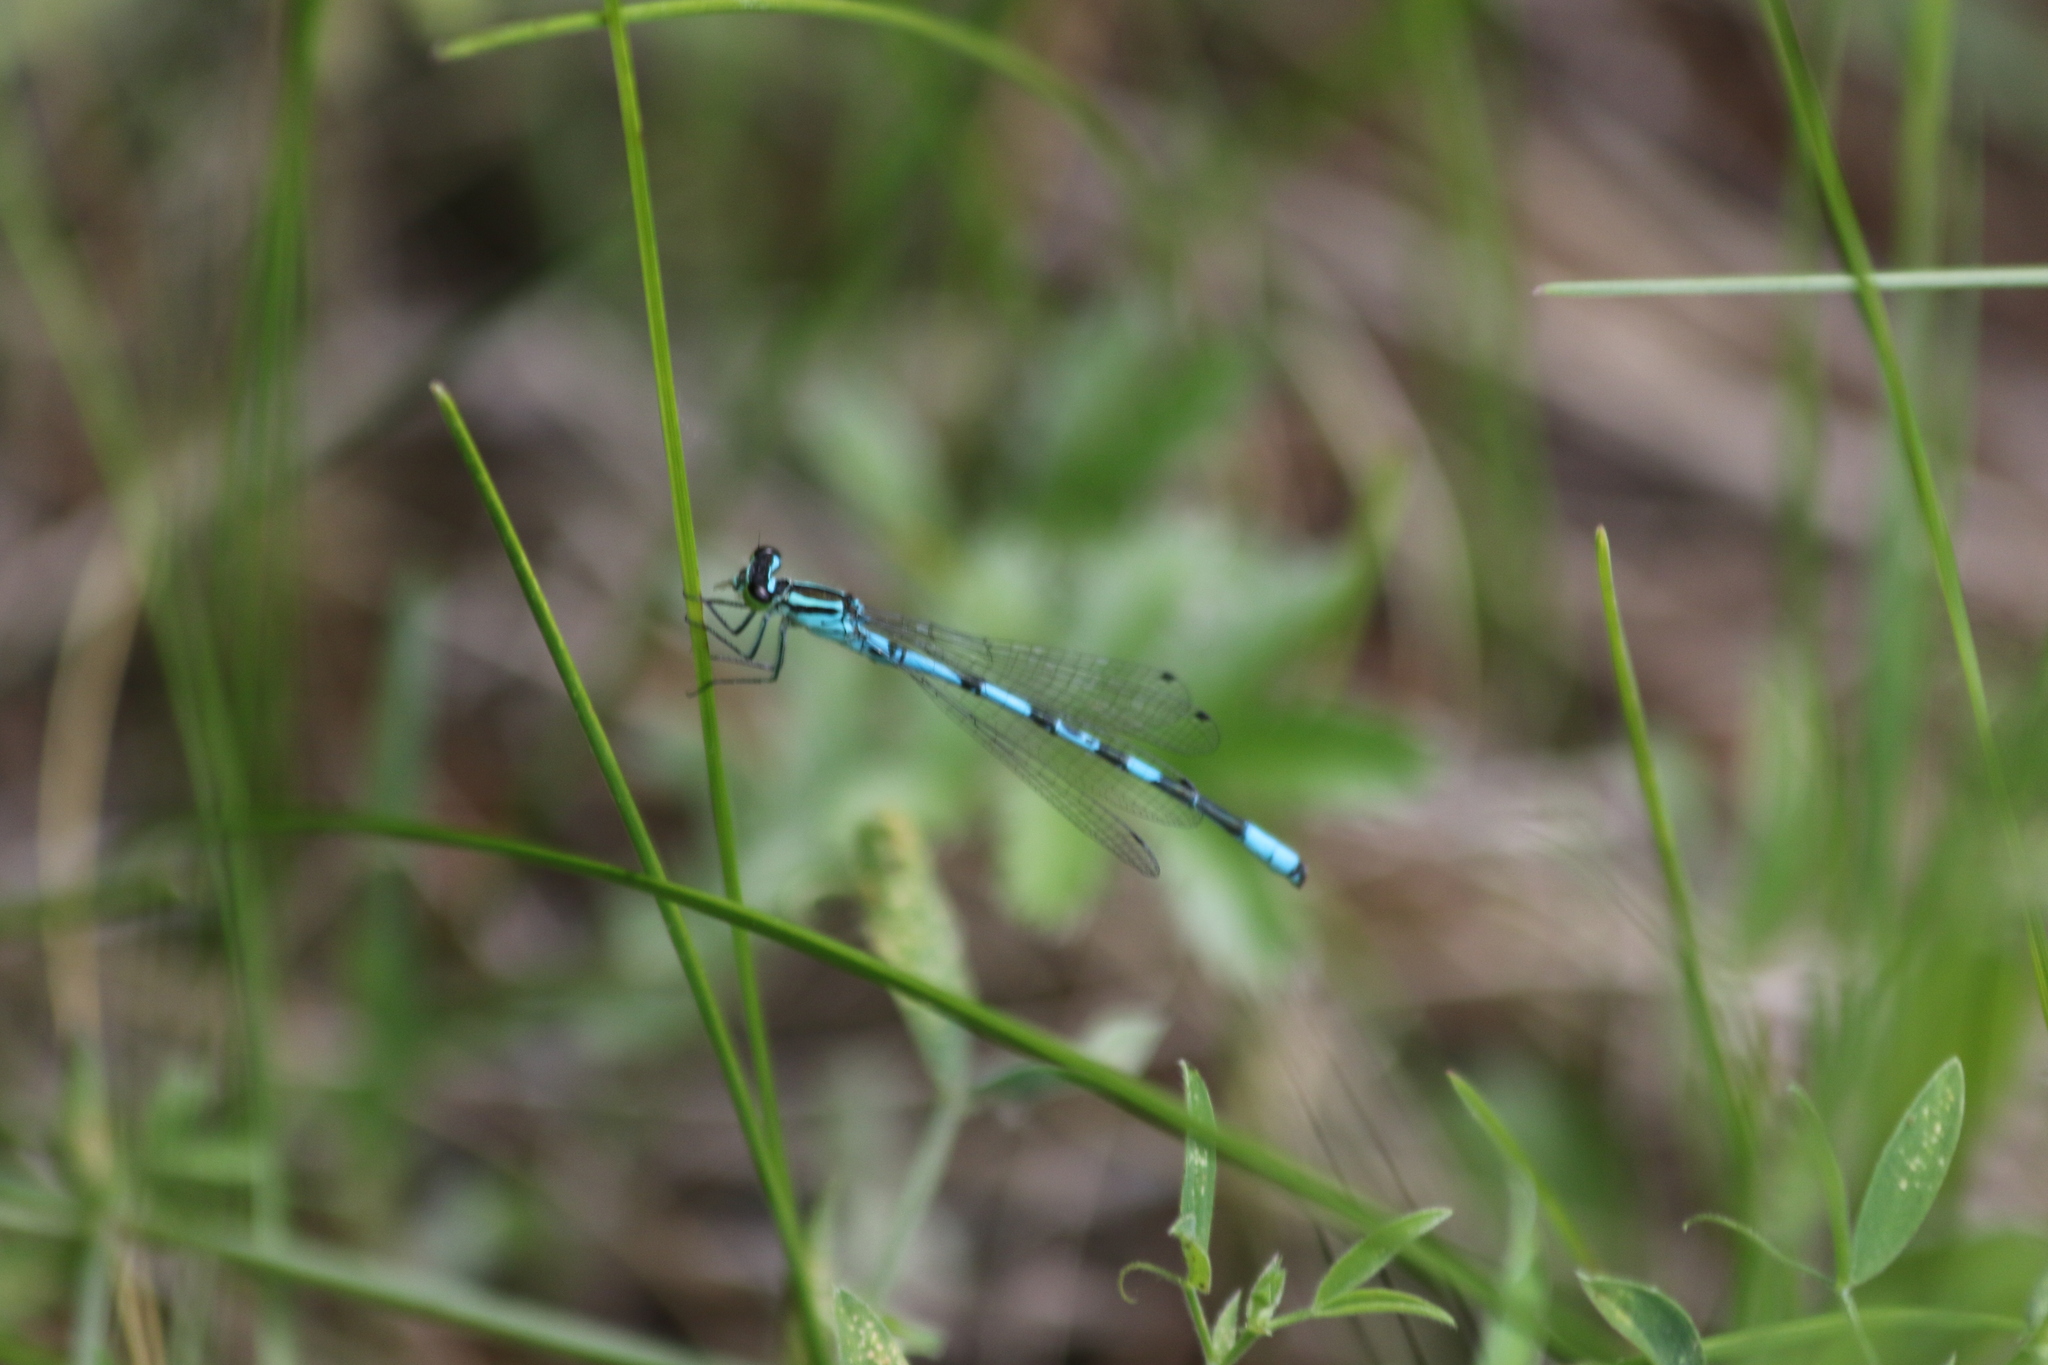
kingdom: Animalia
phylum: Arthropoda
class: Insecta
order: Odonata
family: Coenagrionidae
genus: Coenagrion
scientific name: Coenagrion hastulatum
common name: Spearhead bluet
